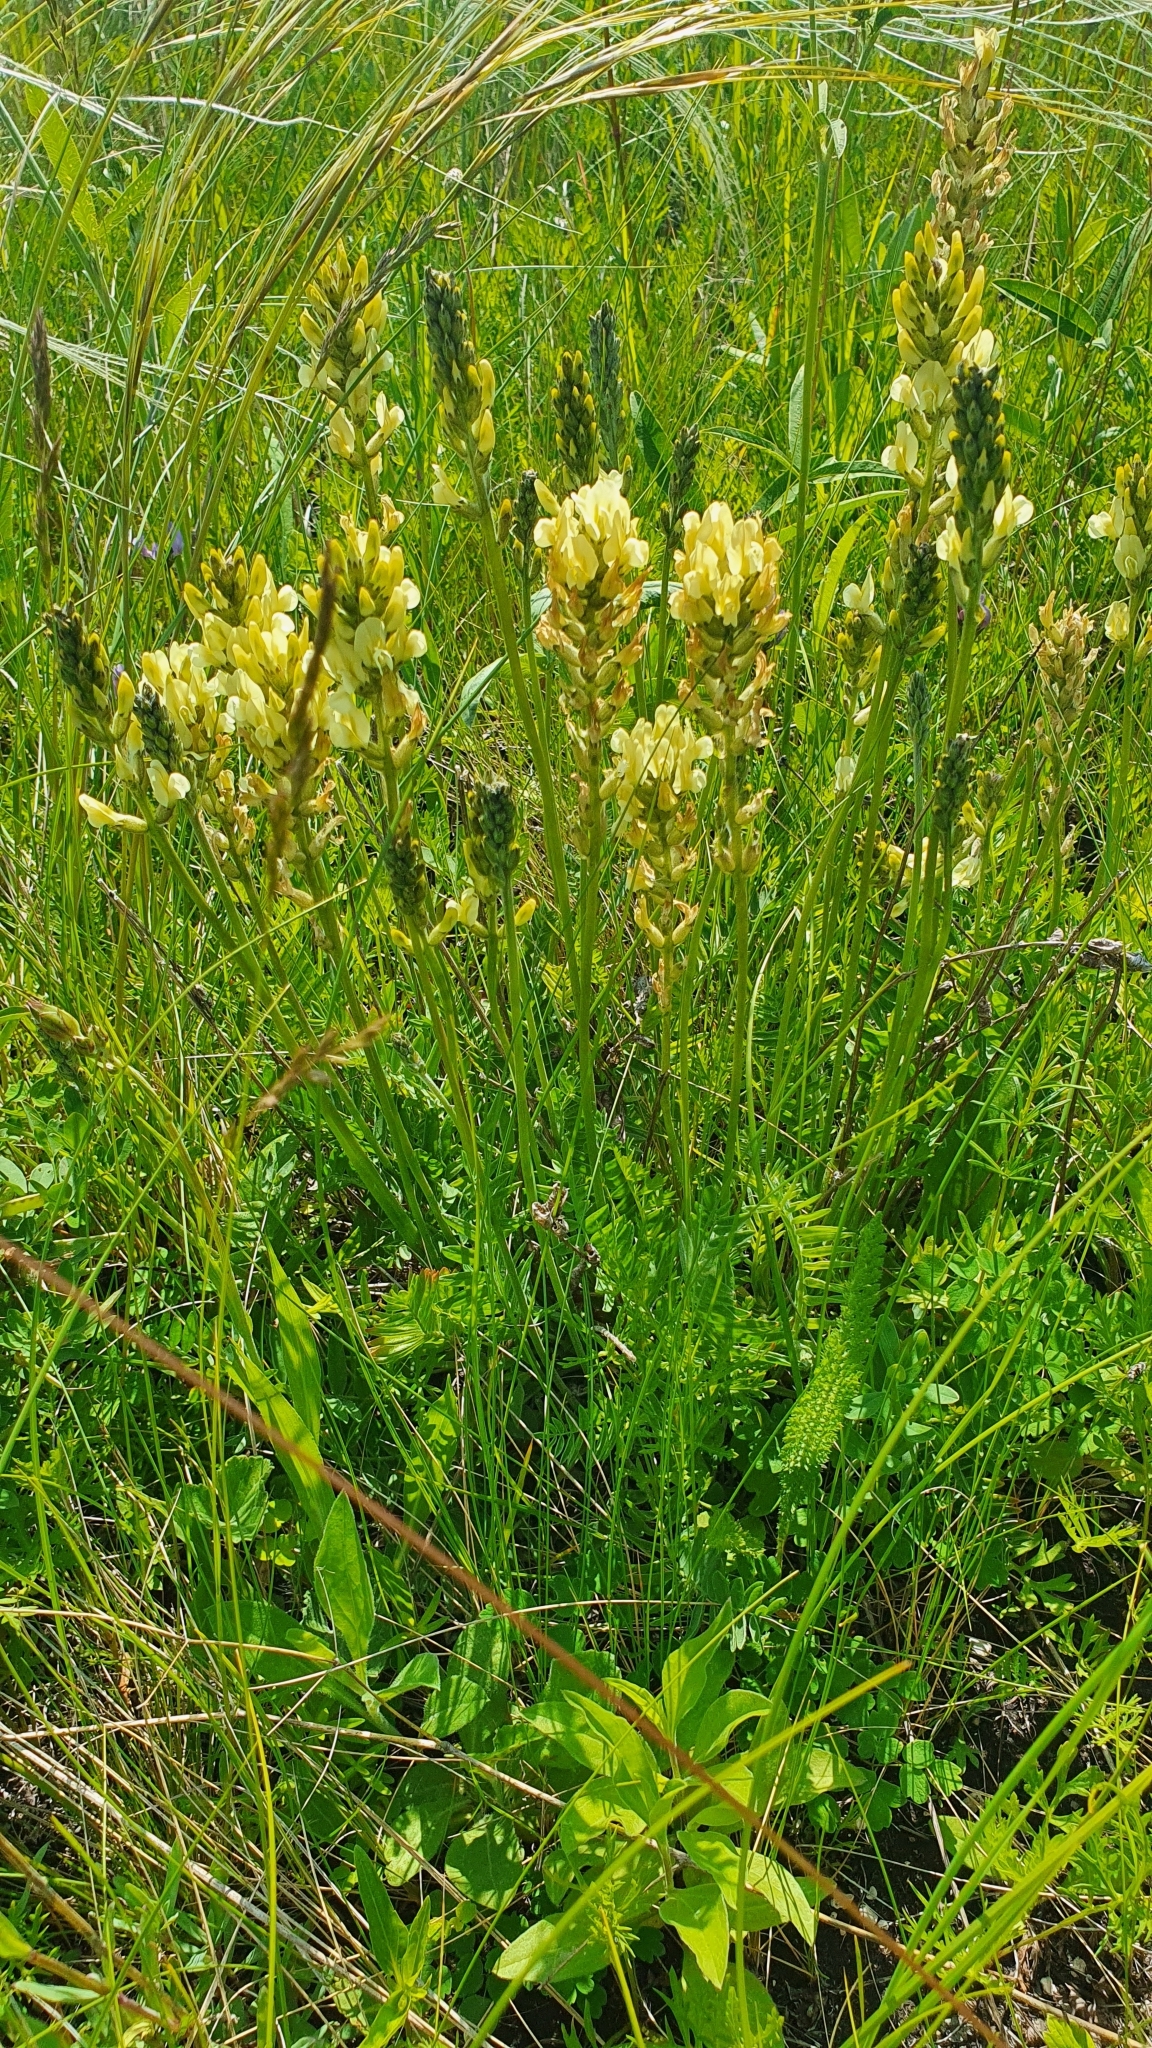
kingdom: Plantae
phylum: Tracheophyta
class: Magnoliopsida
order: Fabales
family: Fabaceae
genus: Oxytropis
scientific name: Oxytropis hippolyti
